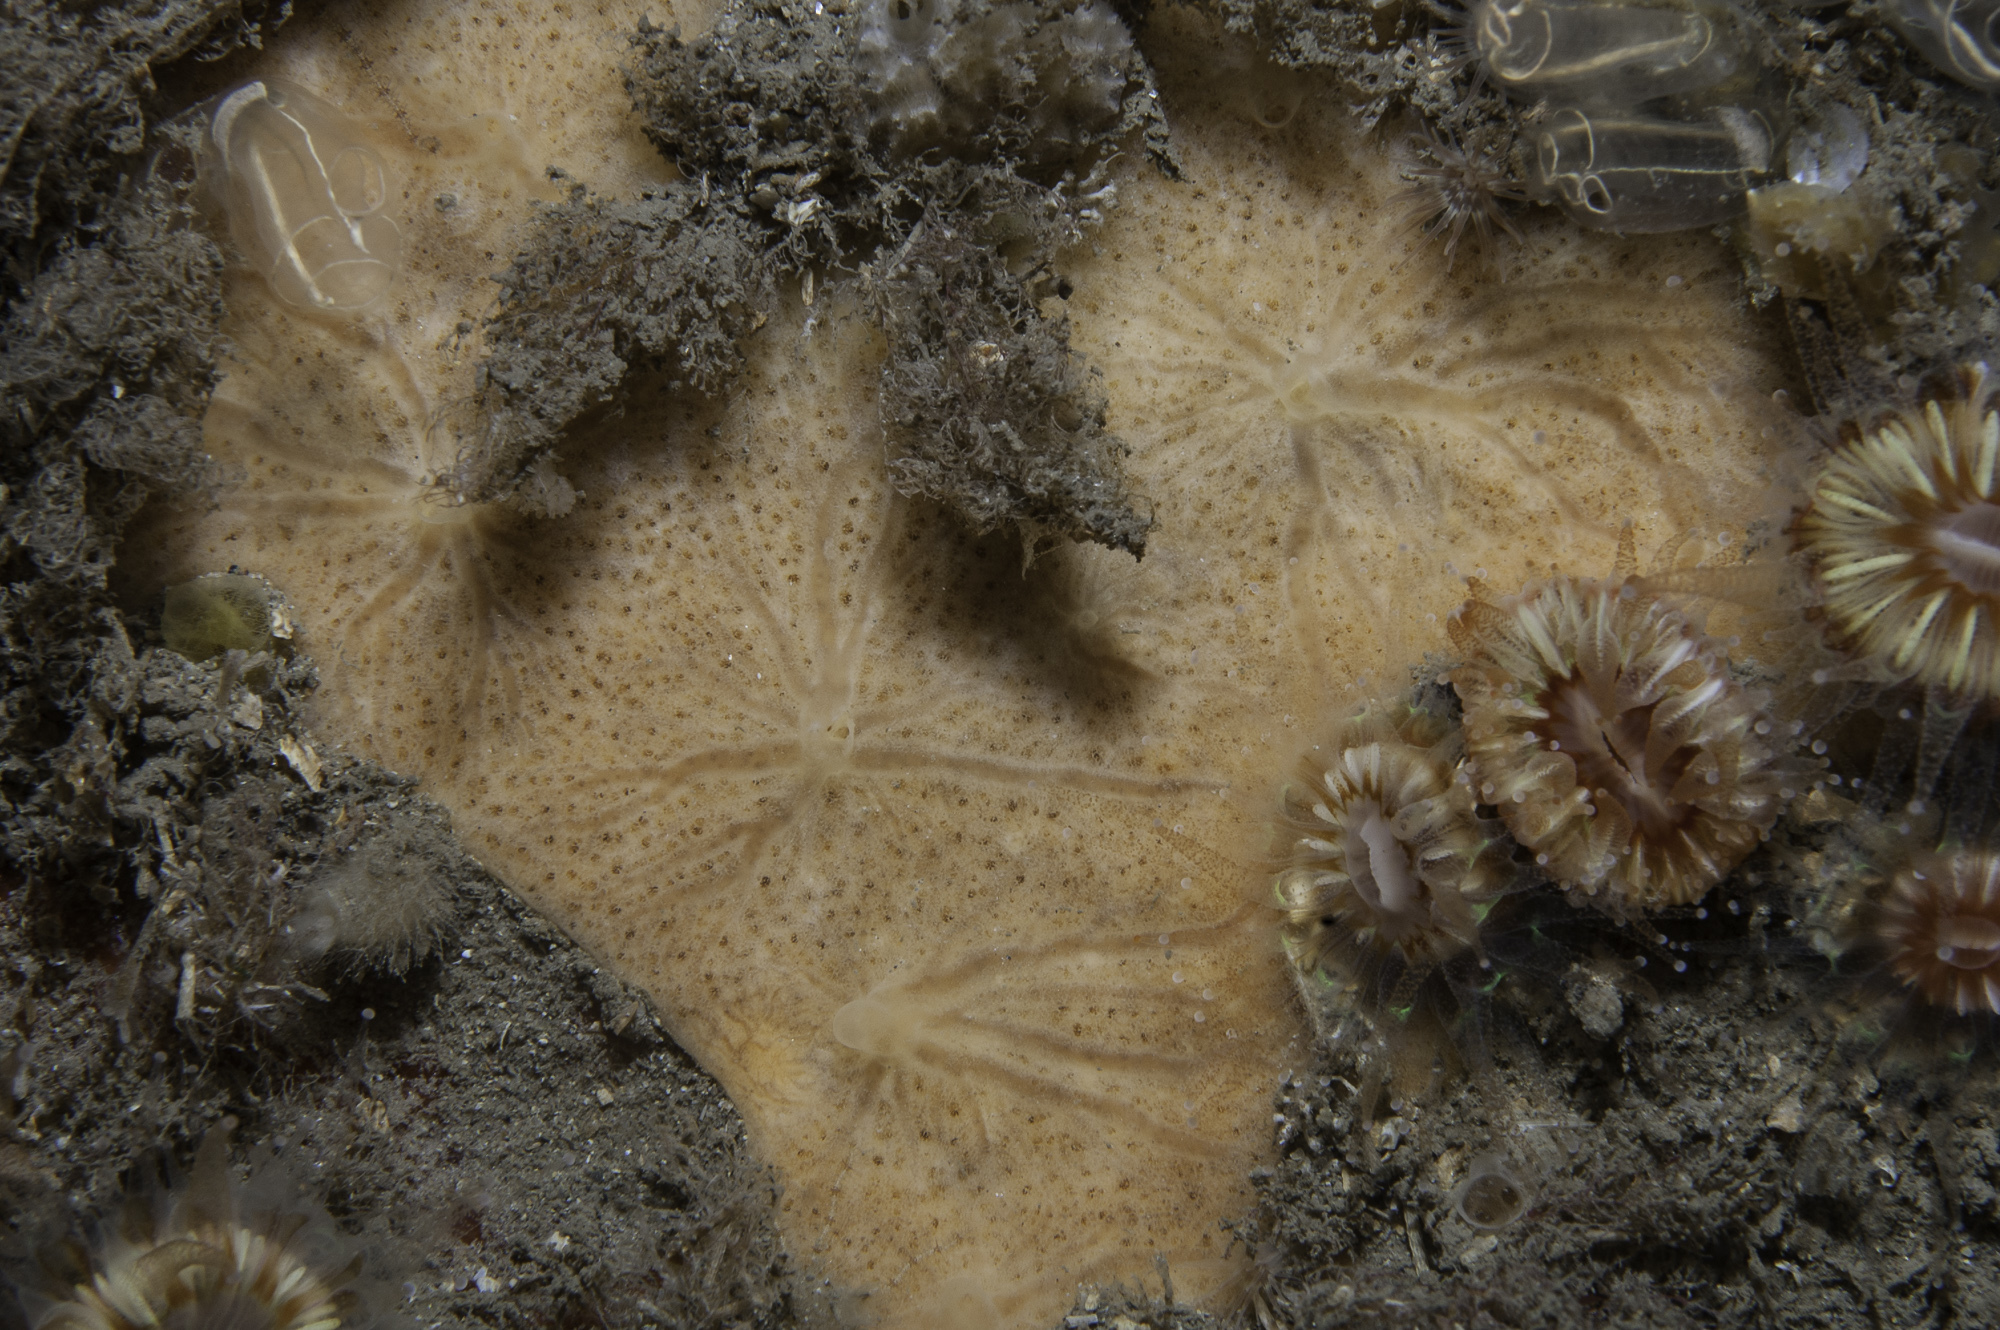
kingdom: Animalia
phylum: Porifera
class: Demospongiae
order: Poecilosclerida
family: Myxillidae
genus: Plocamiancora
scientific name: Plocamiancora arndti
